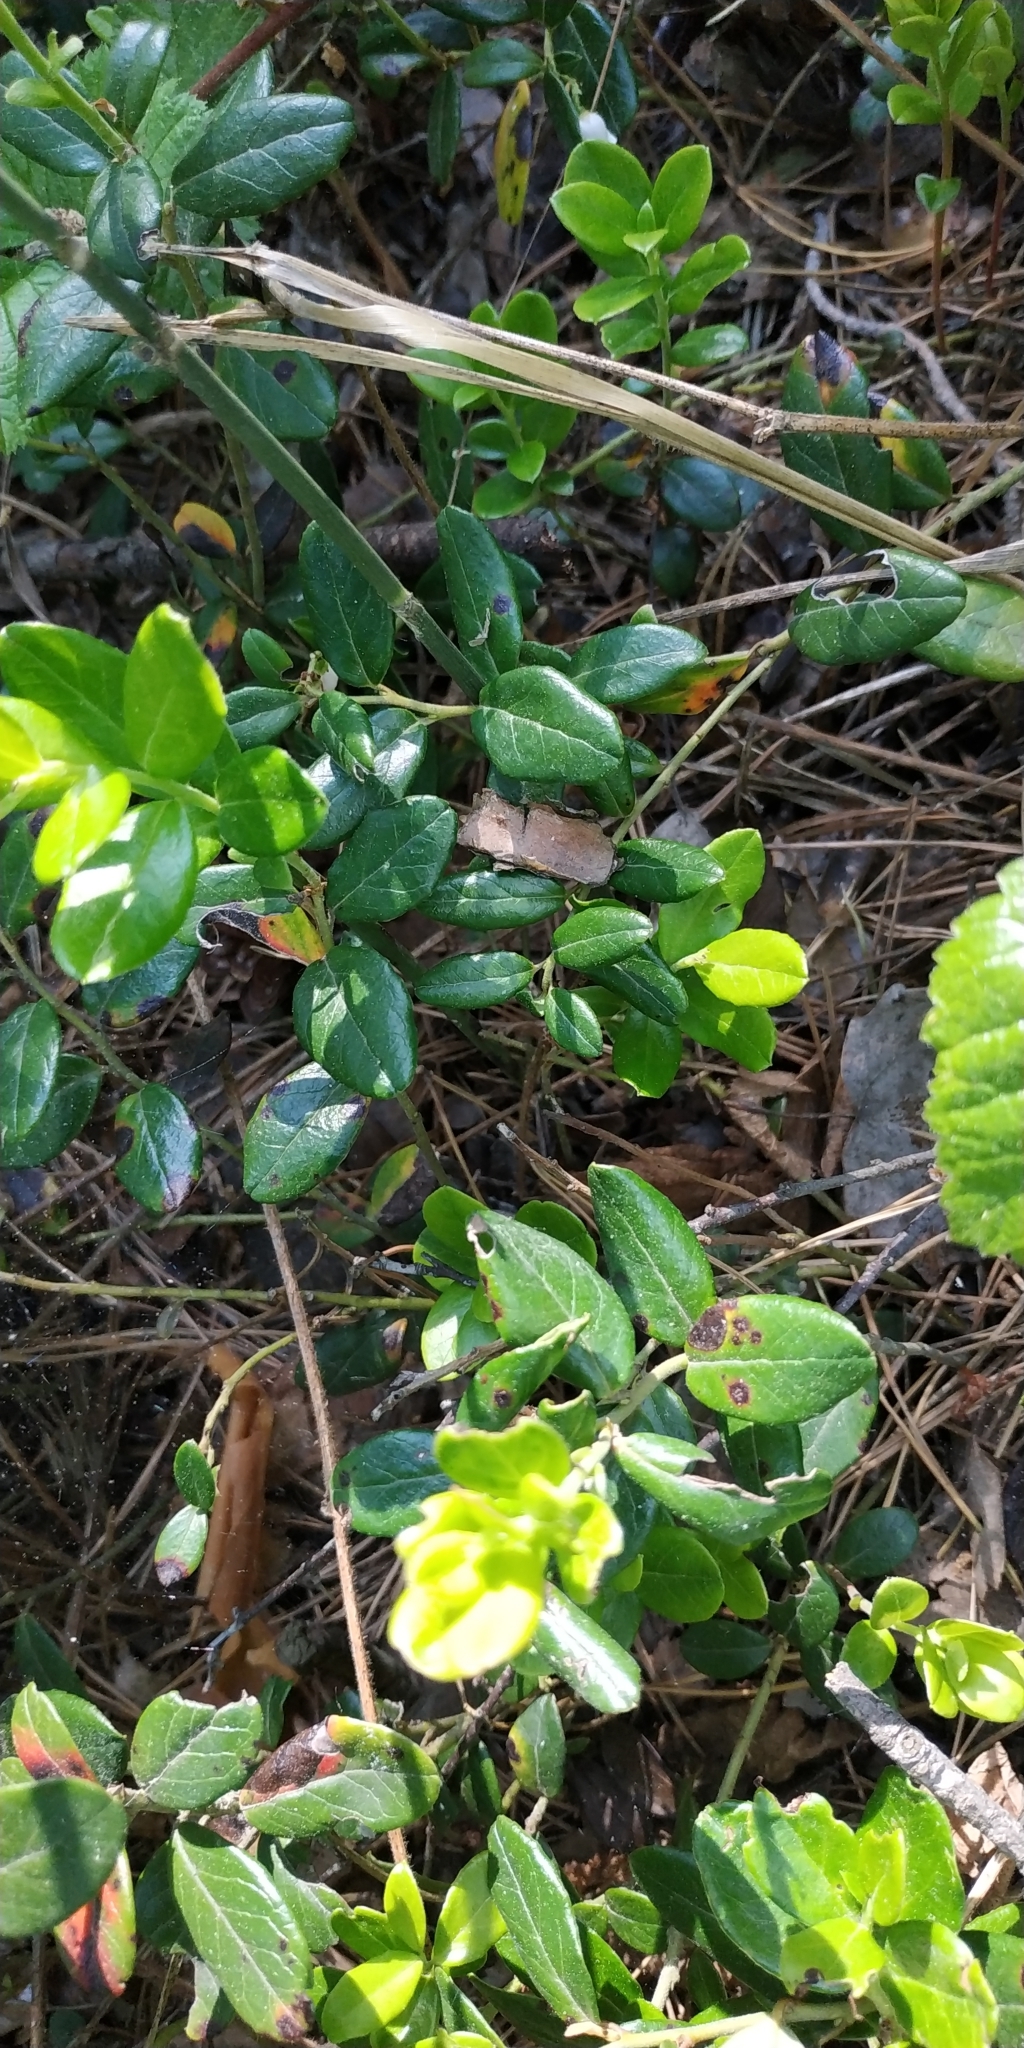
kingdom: Plantae
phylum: Tracheophyta
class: Magnoliopsida
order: Ericales
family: Ericaceae
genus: Vaccinium
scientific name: Vaccinium vitis-idaea
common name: Cowberry
